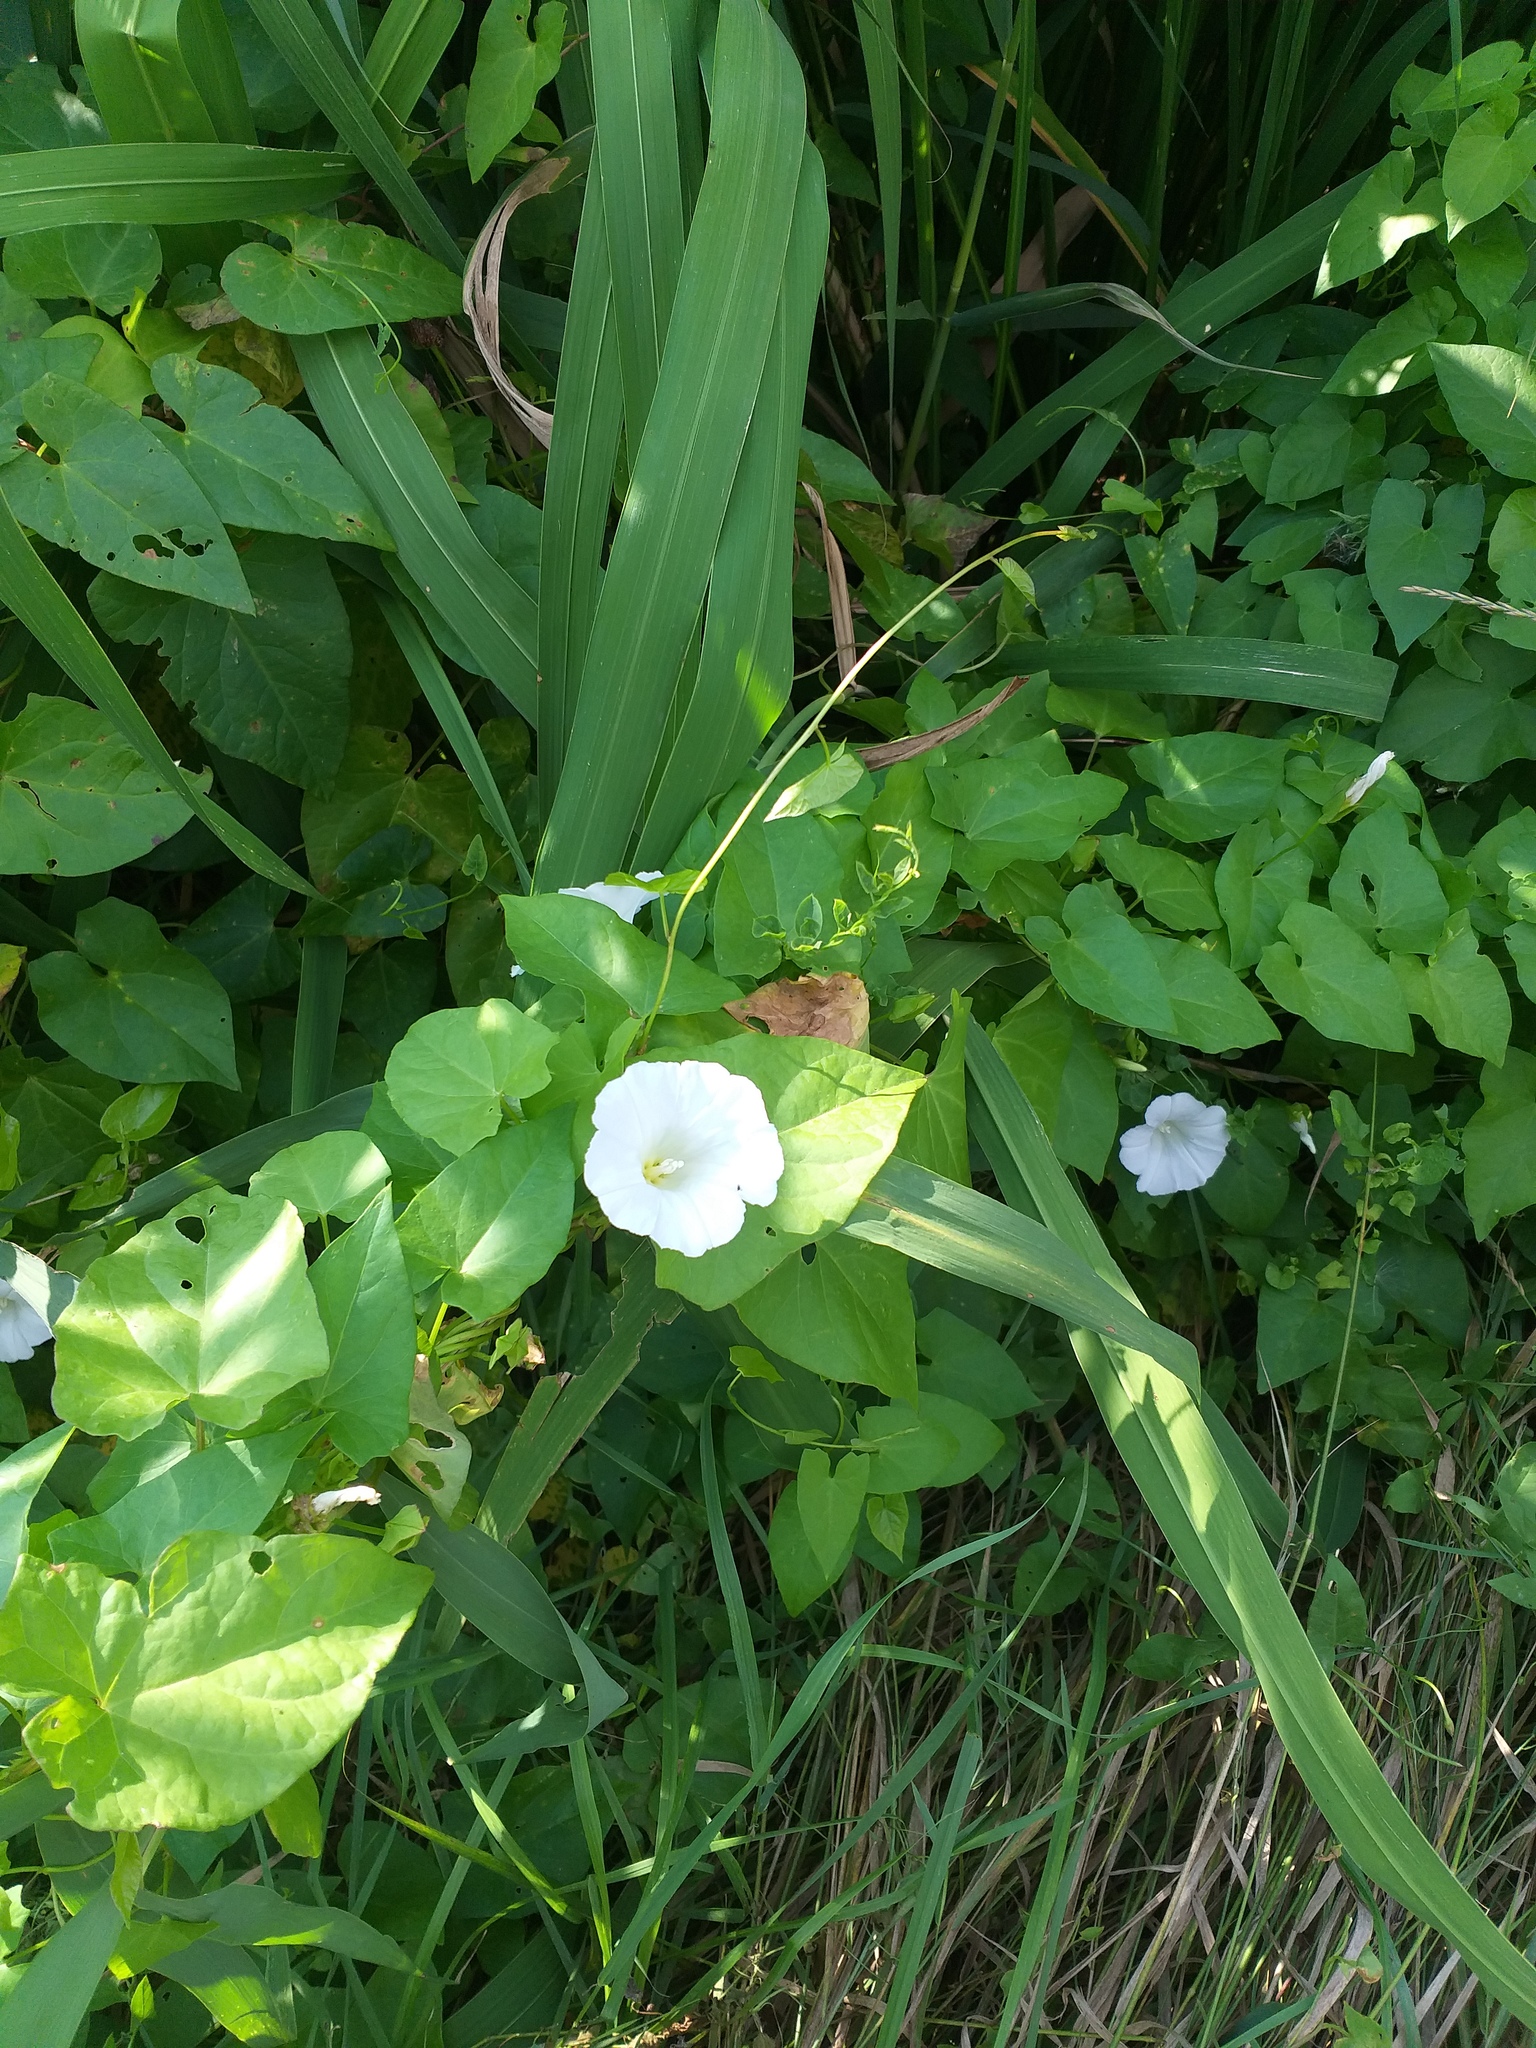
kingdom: Plantae
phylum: Tracheophyta
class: Magnoliopsida
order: Solanales
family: Convolvulaceae
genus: Calystegia
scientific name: Calystegia sepium
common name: Hedge bindweed
